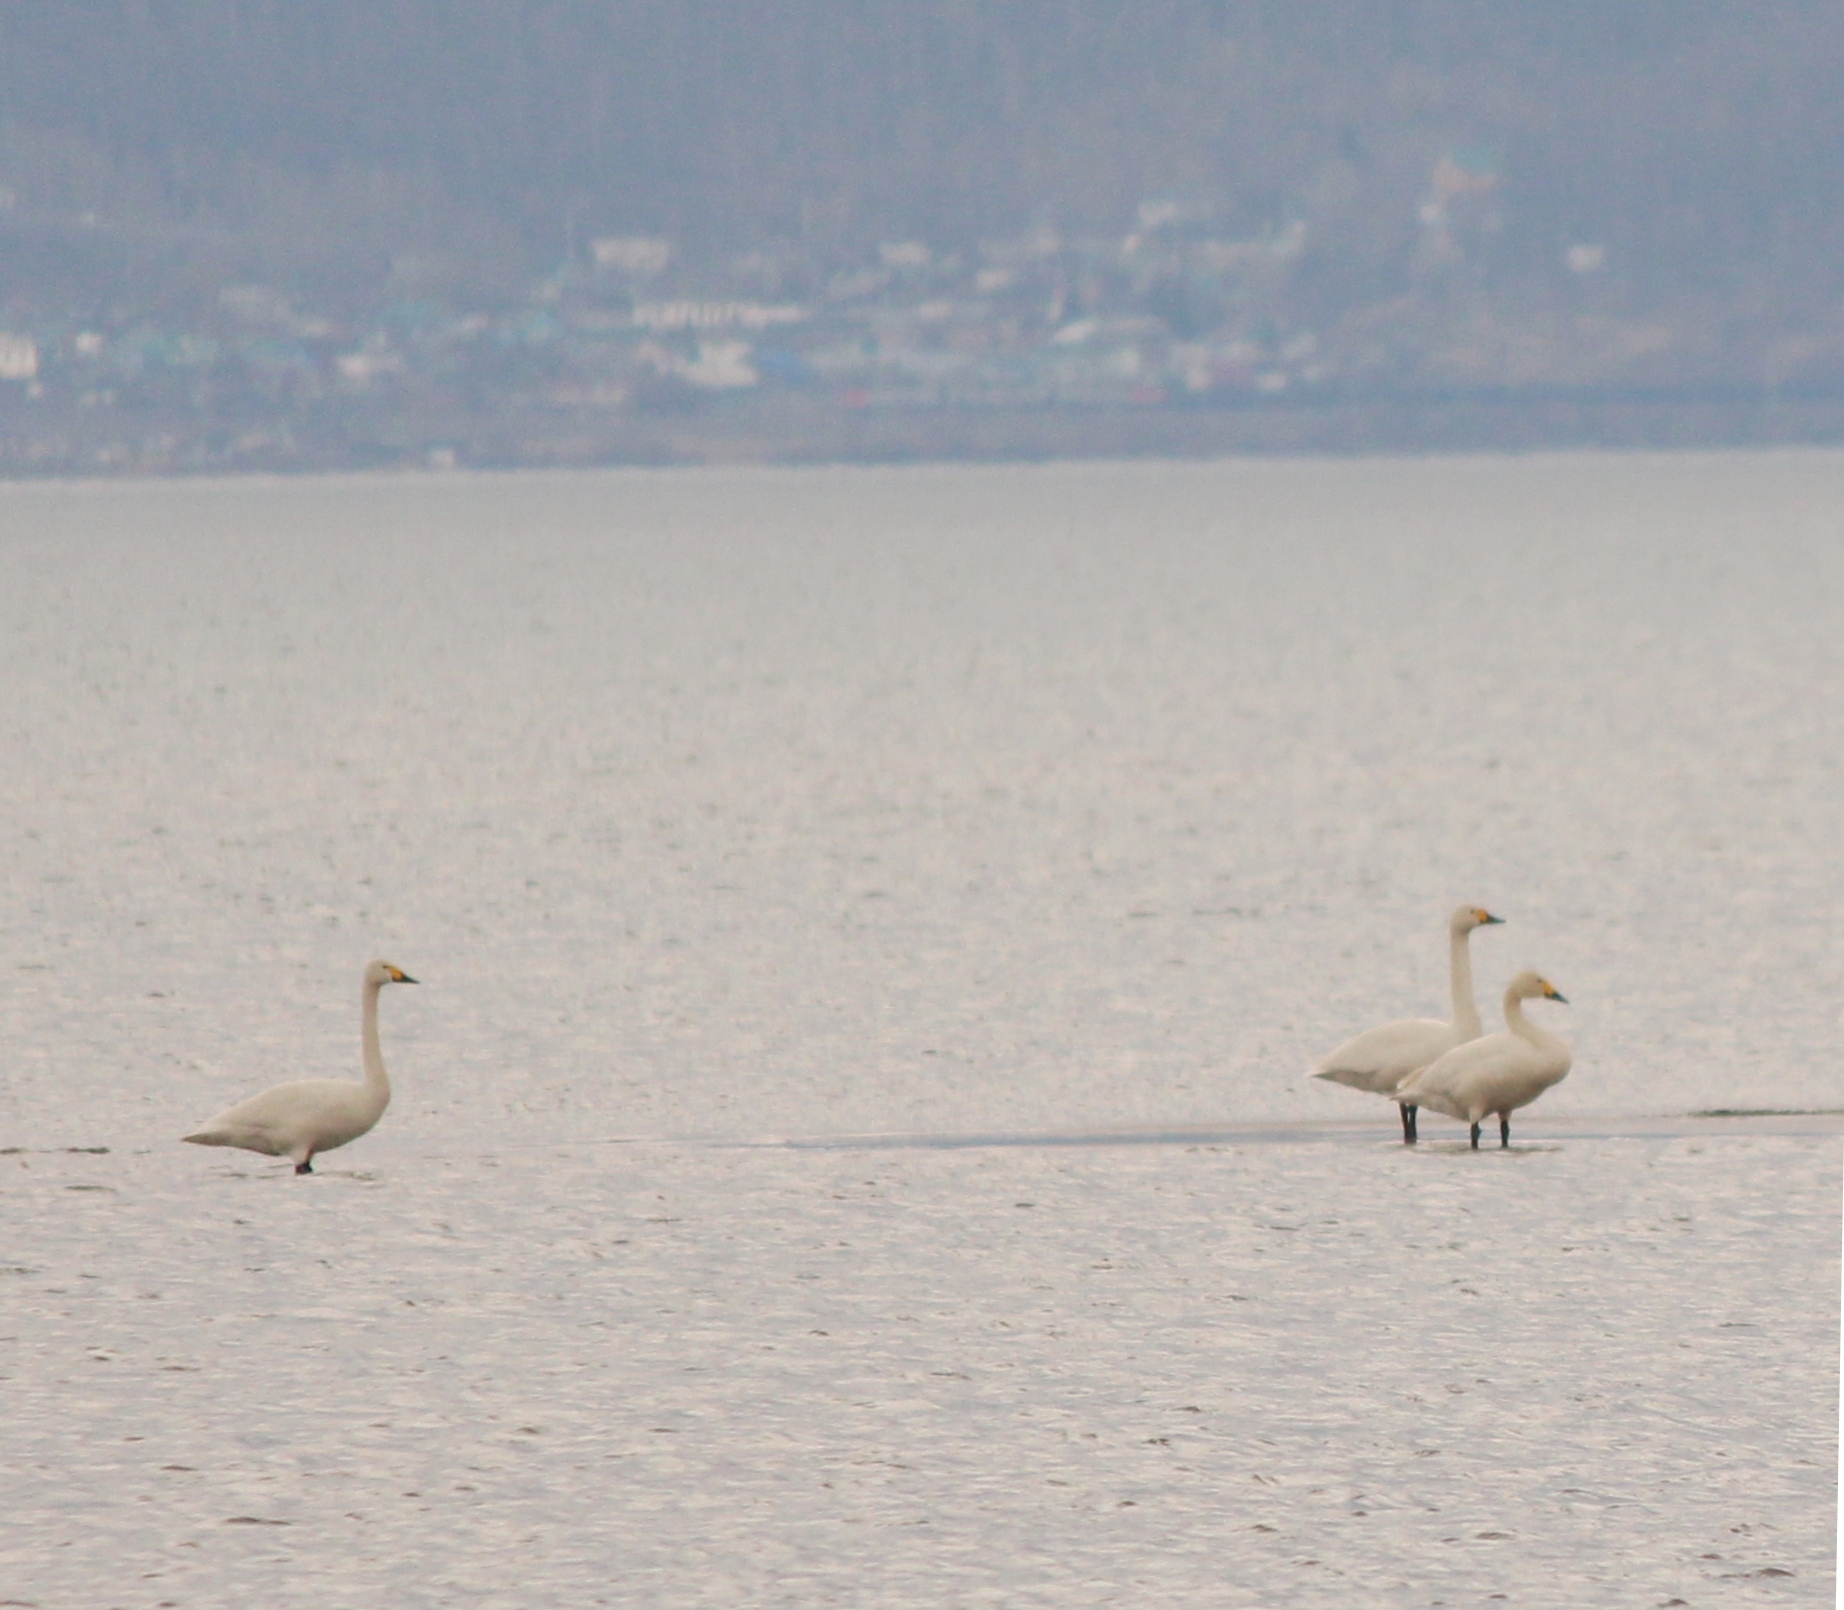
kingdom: Animalia
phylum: Chordata
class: Aves
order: Anseriformes
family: Anatidae
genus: Cygnus
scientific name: Cygnus columbianus
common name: Tundra swan
